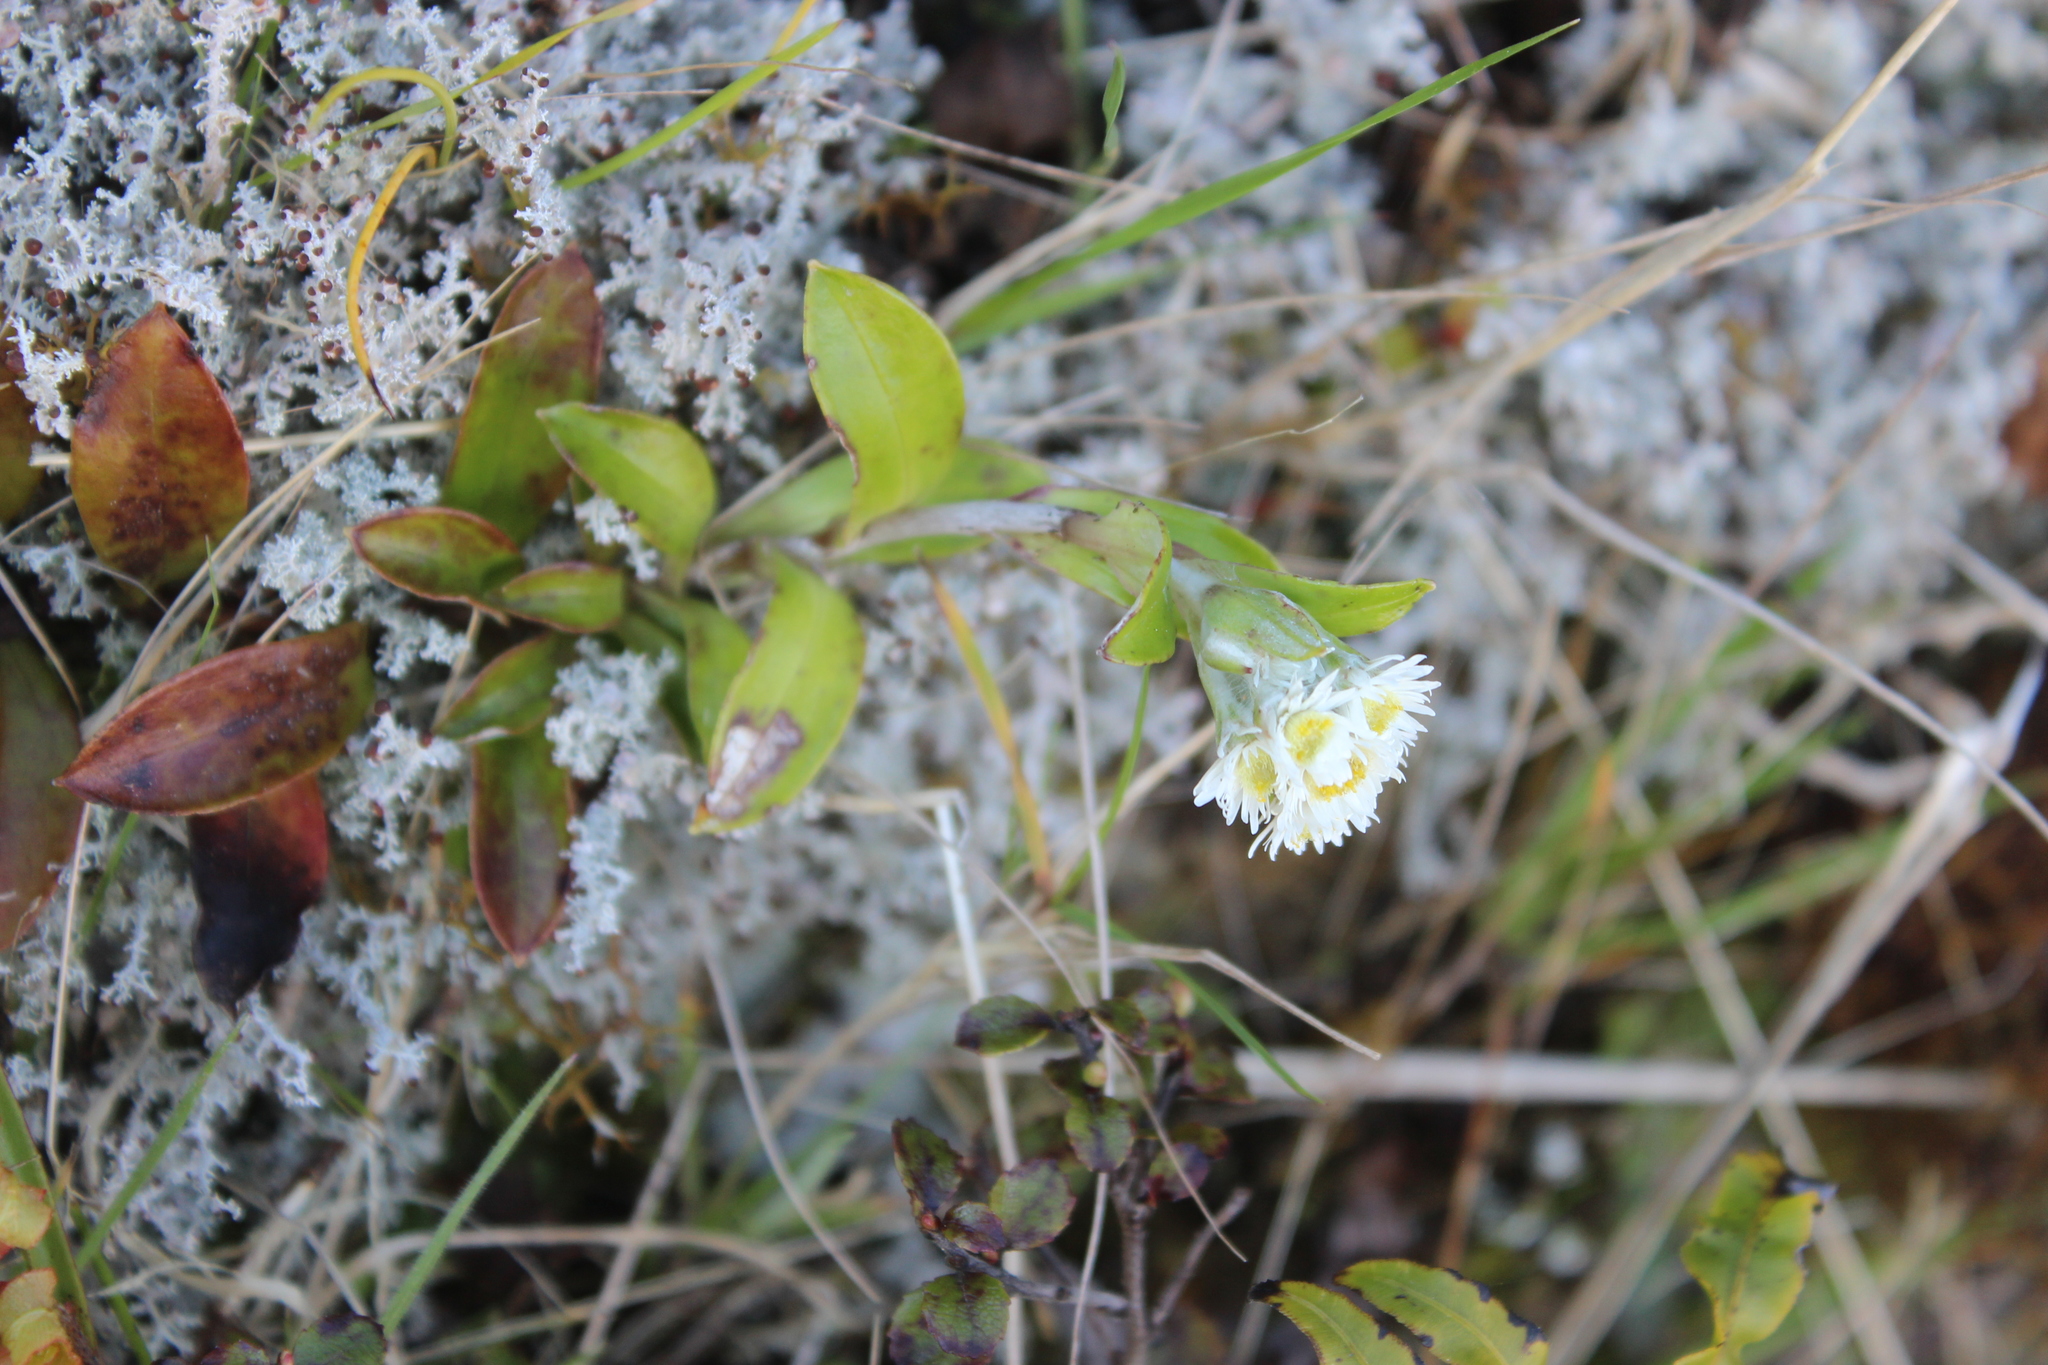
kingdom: Plantae
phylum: Tracheophyta
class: Magnoliopsida
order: Asterales
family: Asteraceae
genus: Anaphalioides
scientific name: Anaphalioides trinervis
